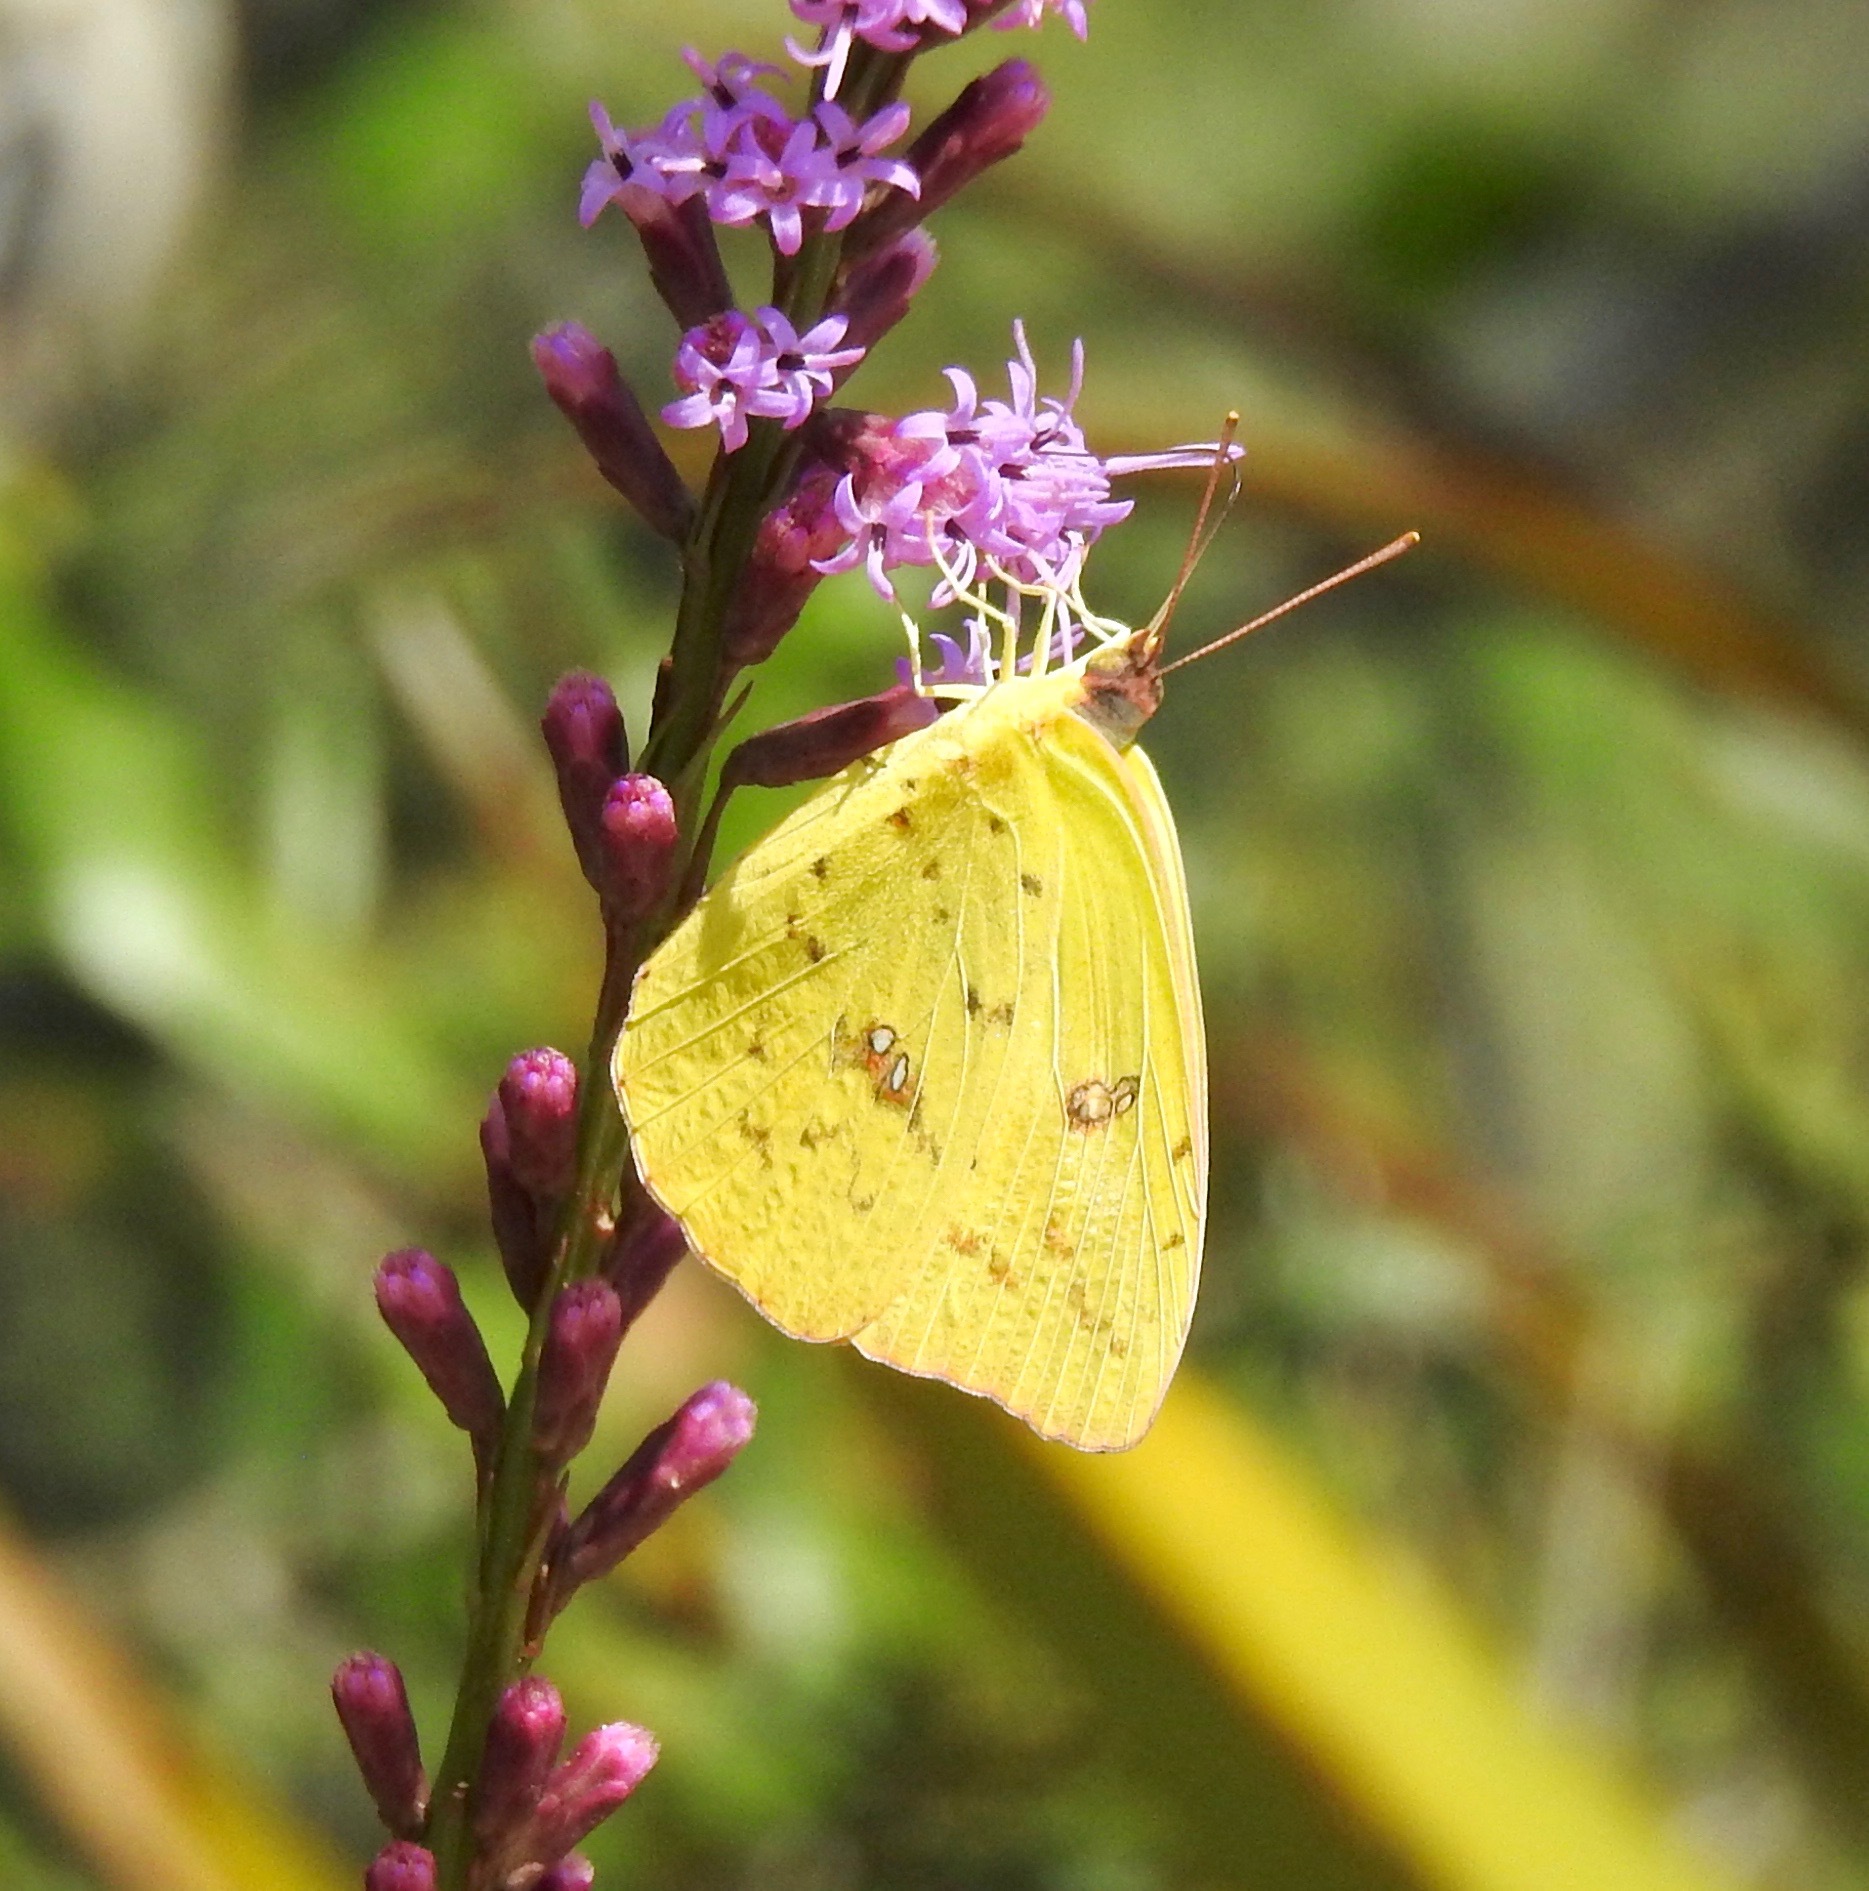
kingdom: Animalia
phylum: Arthropoda
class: Insecta
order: Lepidoptera
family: Pieridae
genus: Phoebis
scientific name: Phoebis sennae
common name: Cloudless sulphur
